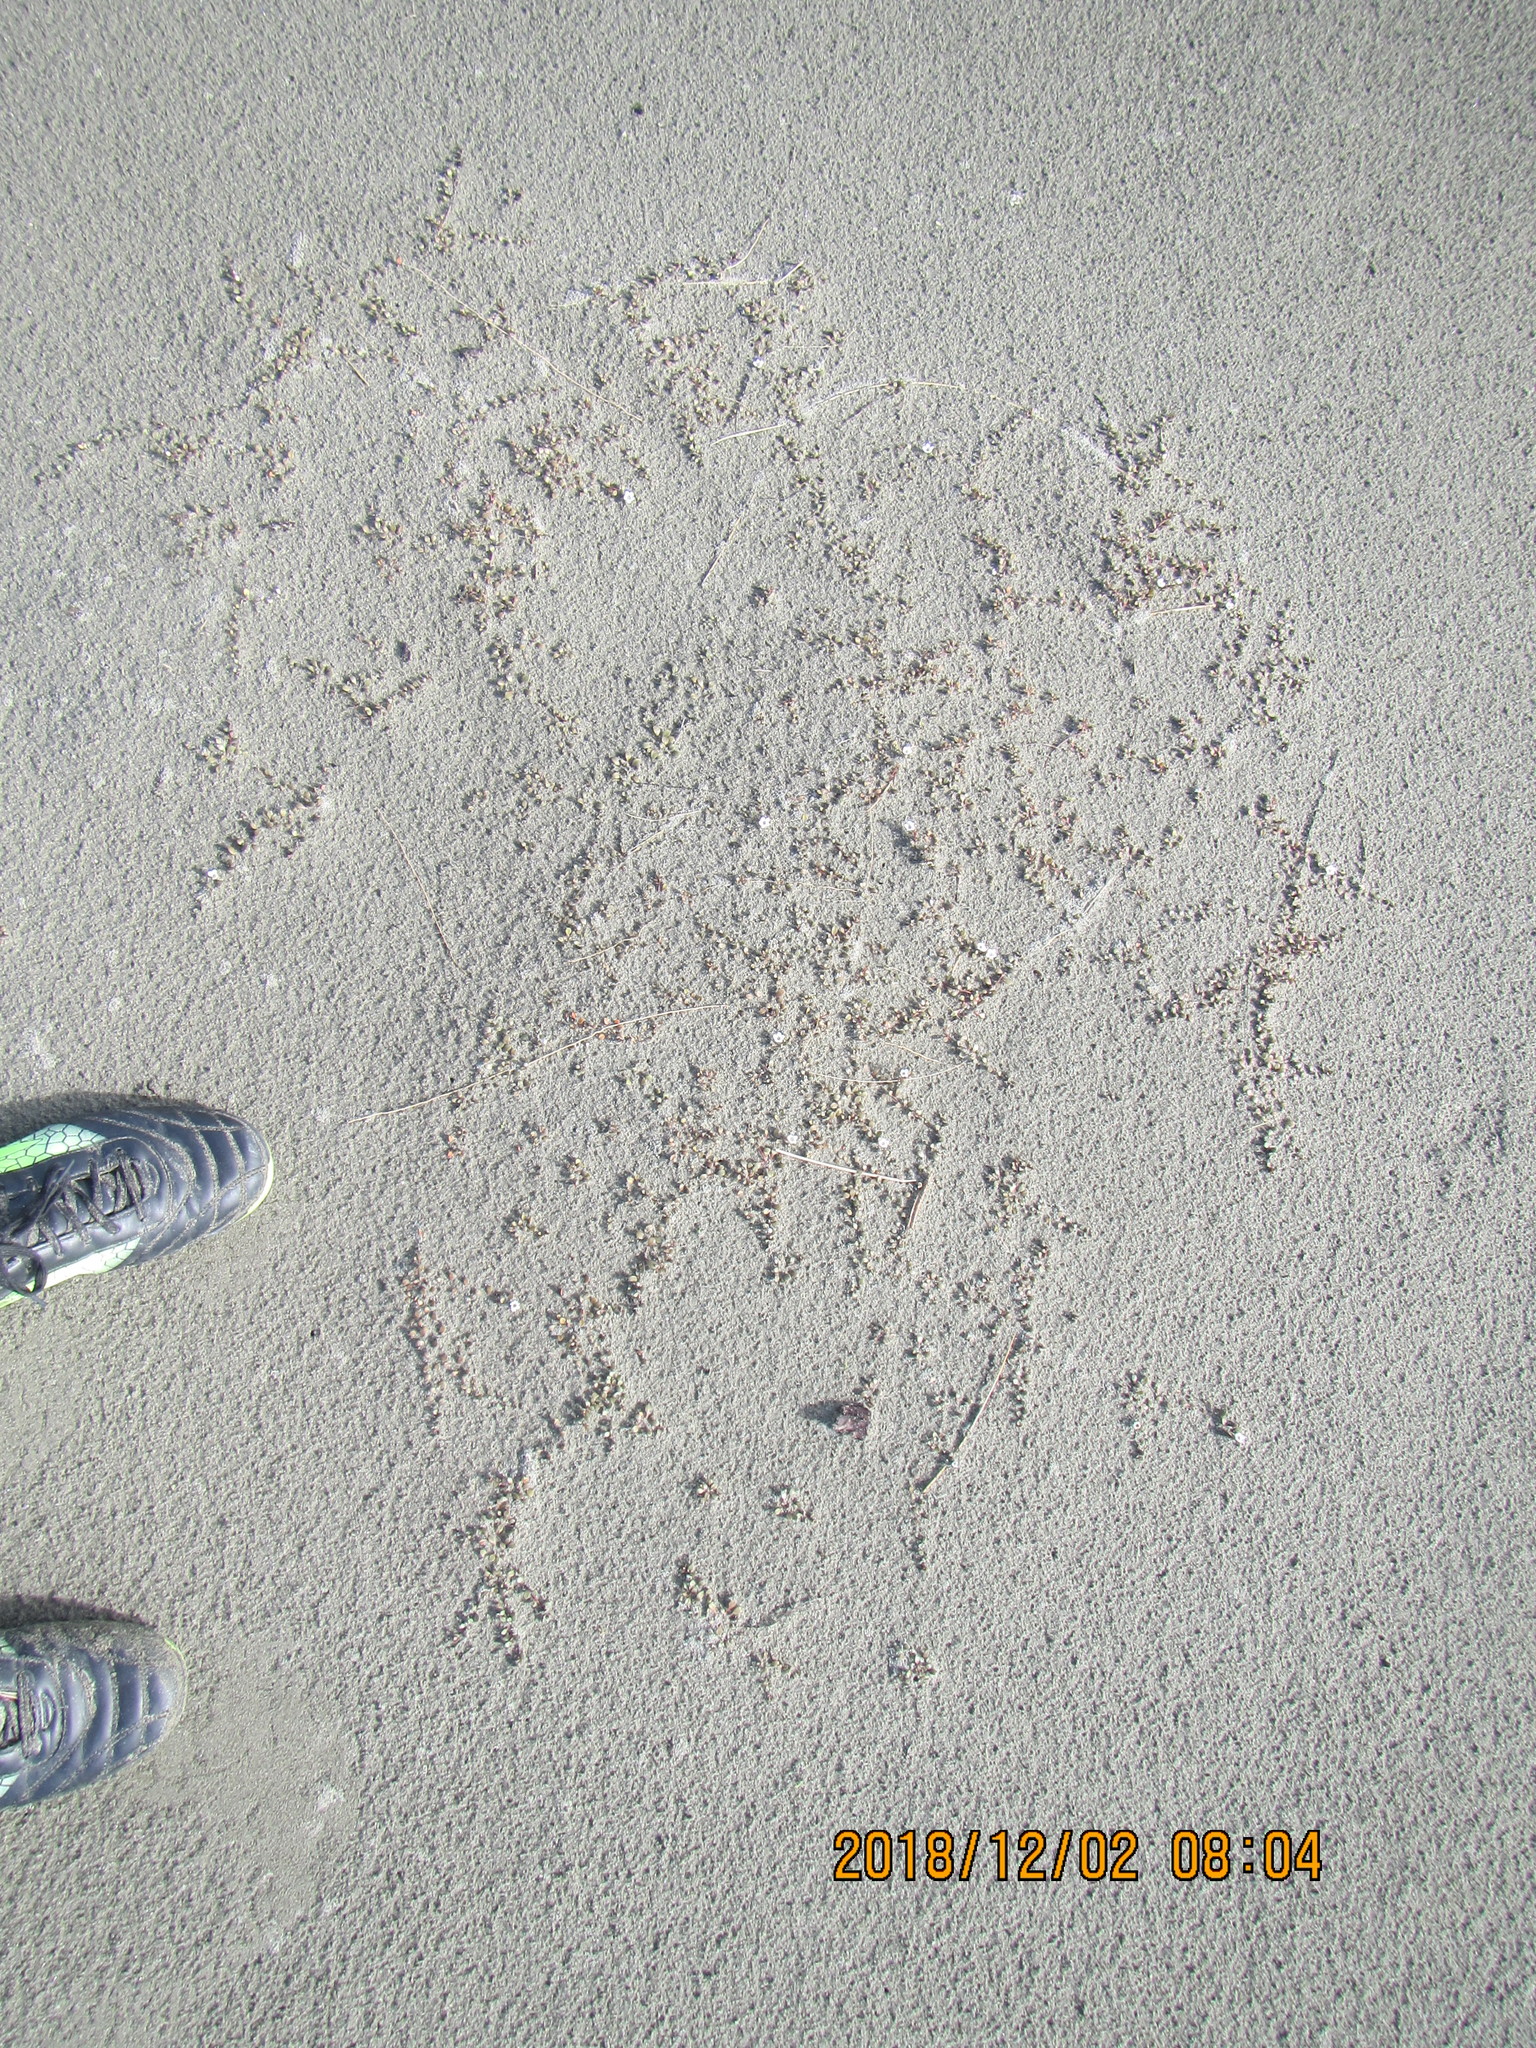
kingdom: Plantae
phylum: Tracheophyta
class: Magnoliopsida
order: Ericales
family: Primulaceae
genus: Samolus
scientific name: Samolus repens
